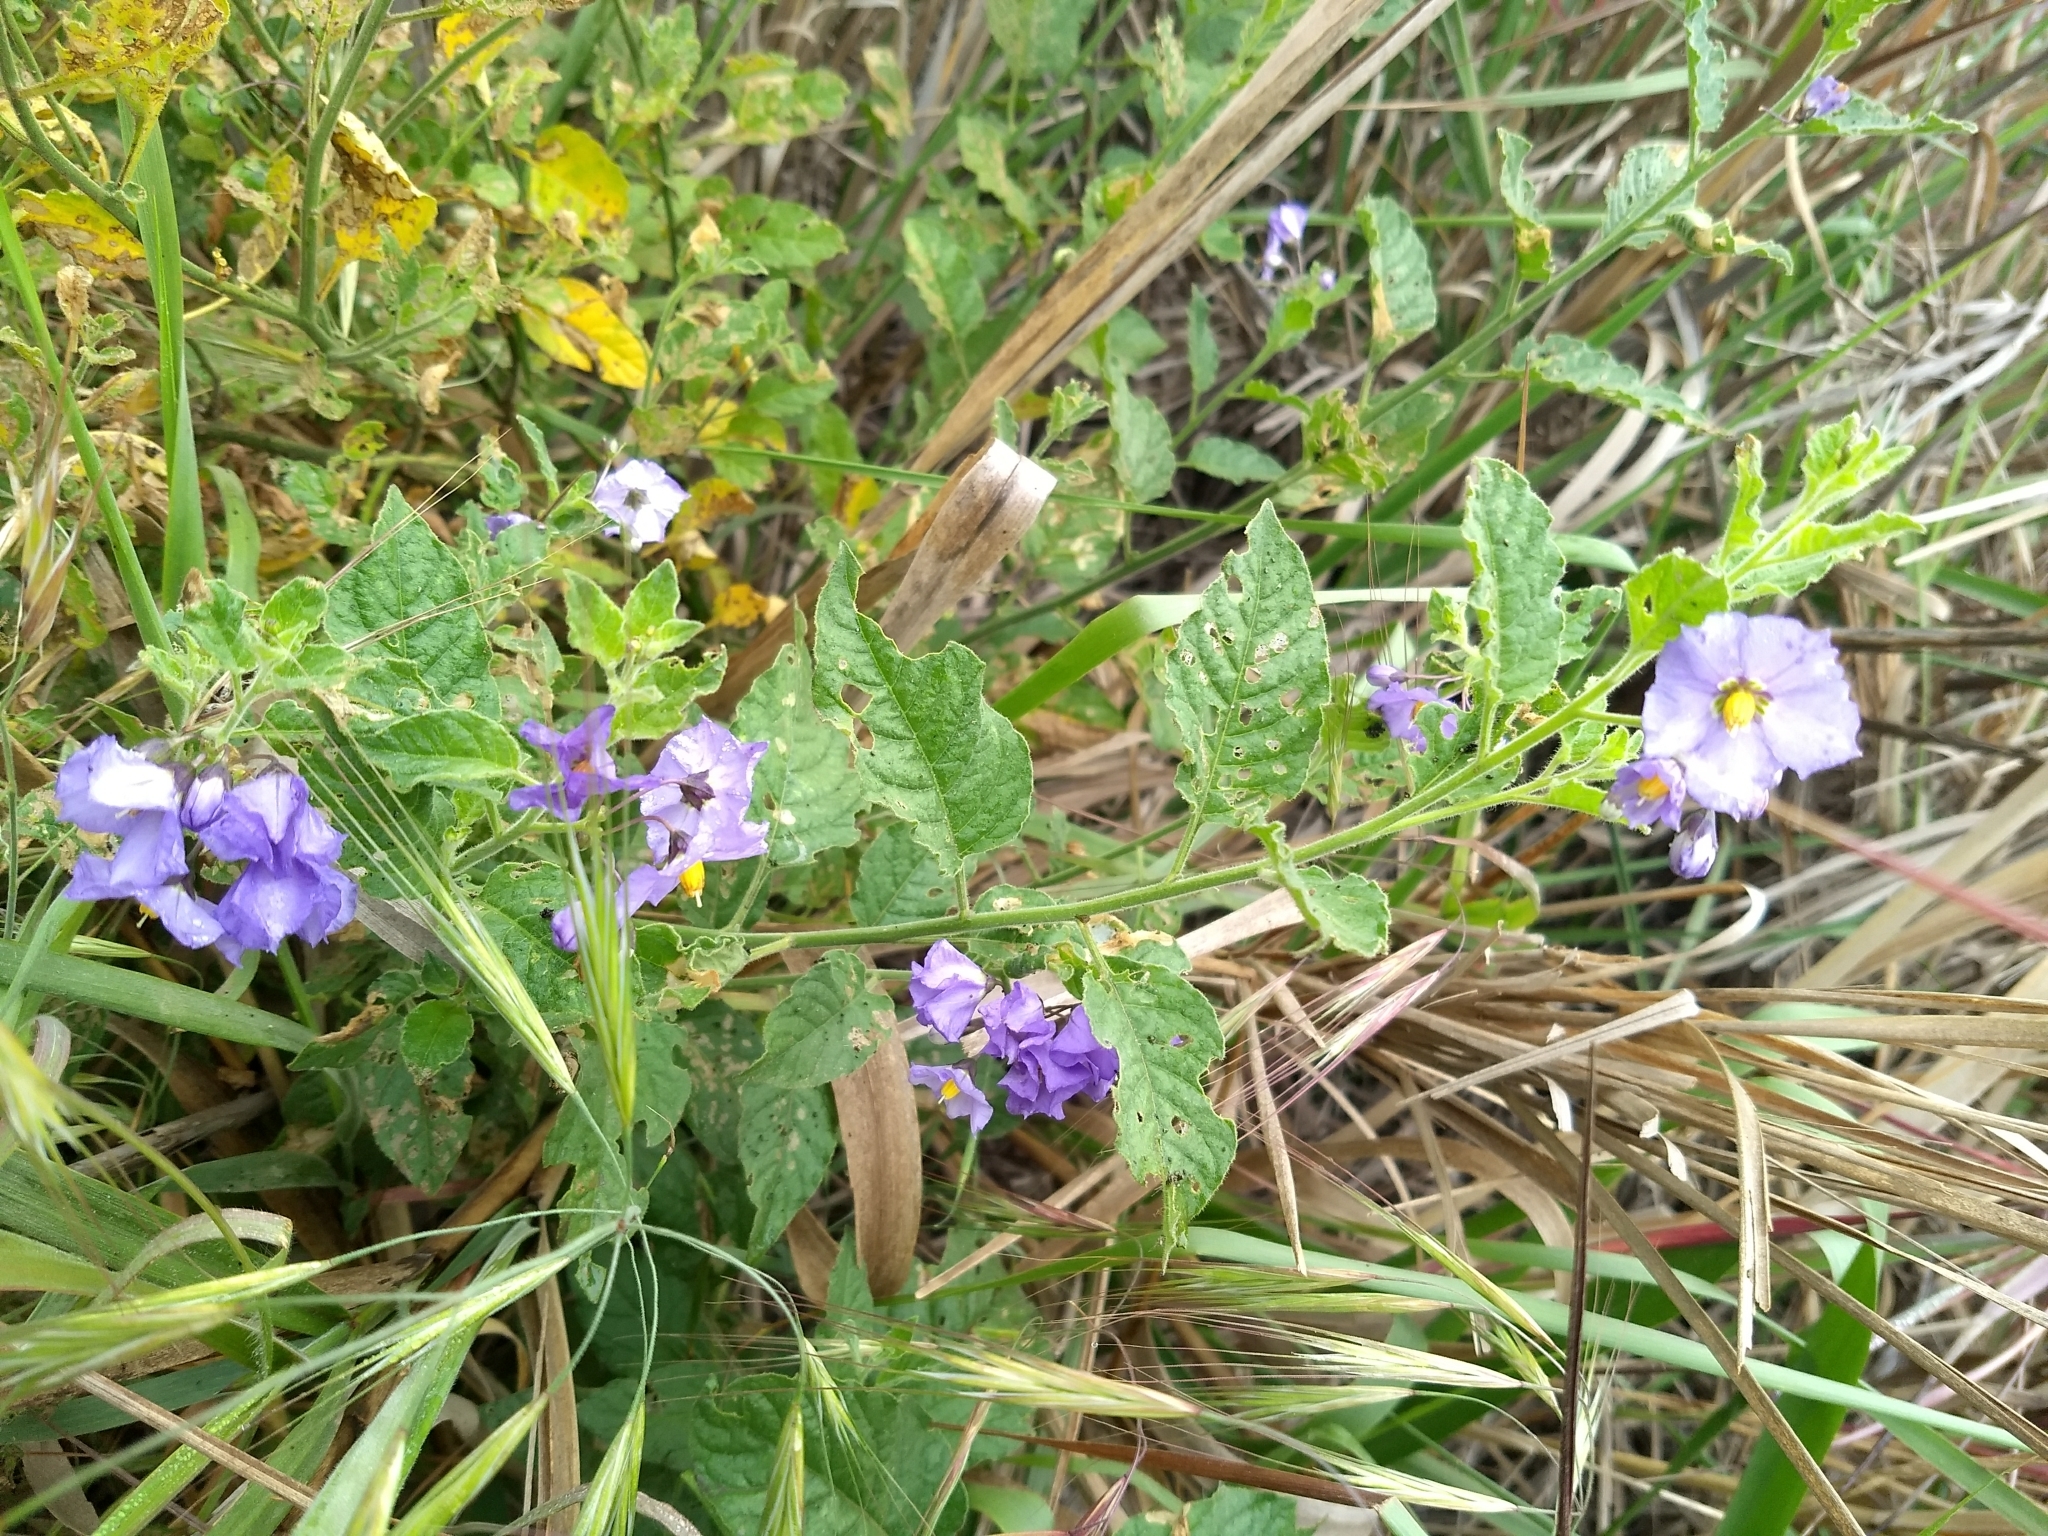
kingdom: Plantae
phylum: Tracheophyta
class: Magnoliopsida
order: Solanales
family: Solanaceae
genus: Solanum
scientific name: Solanum umbelliferum
